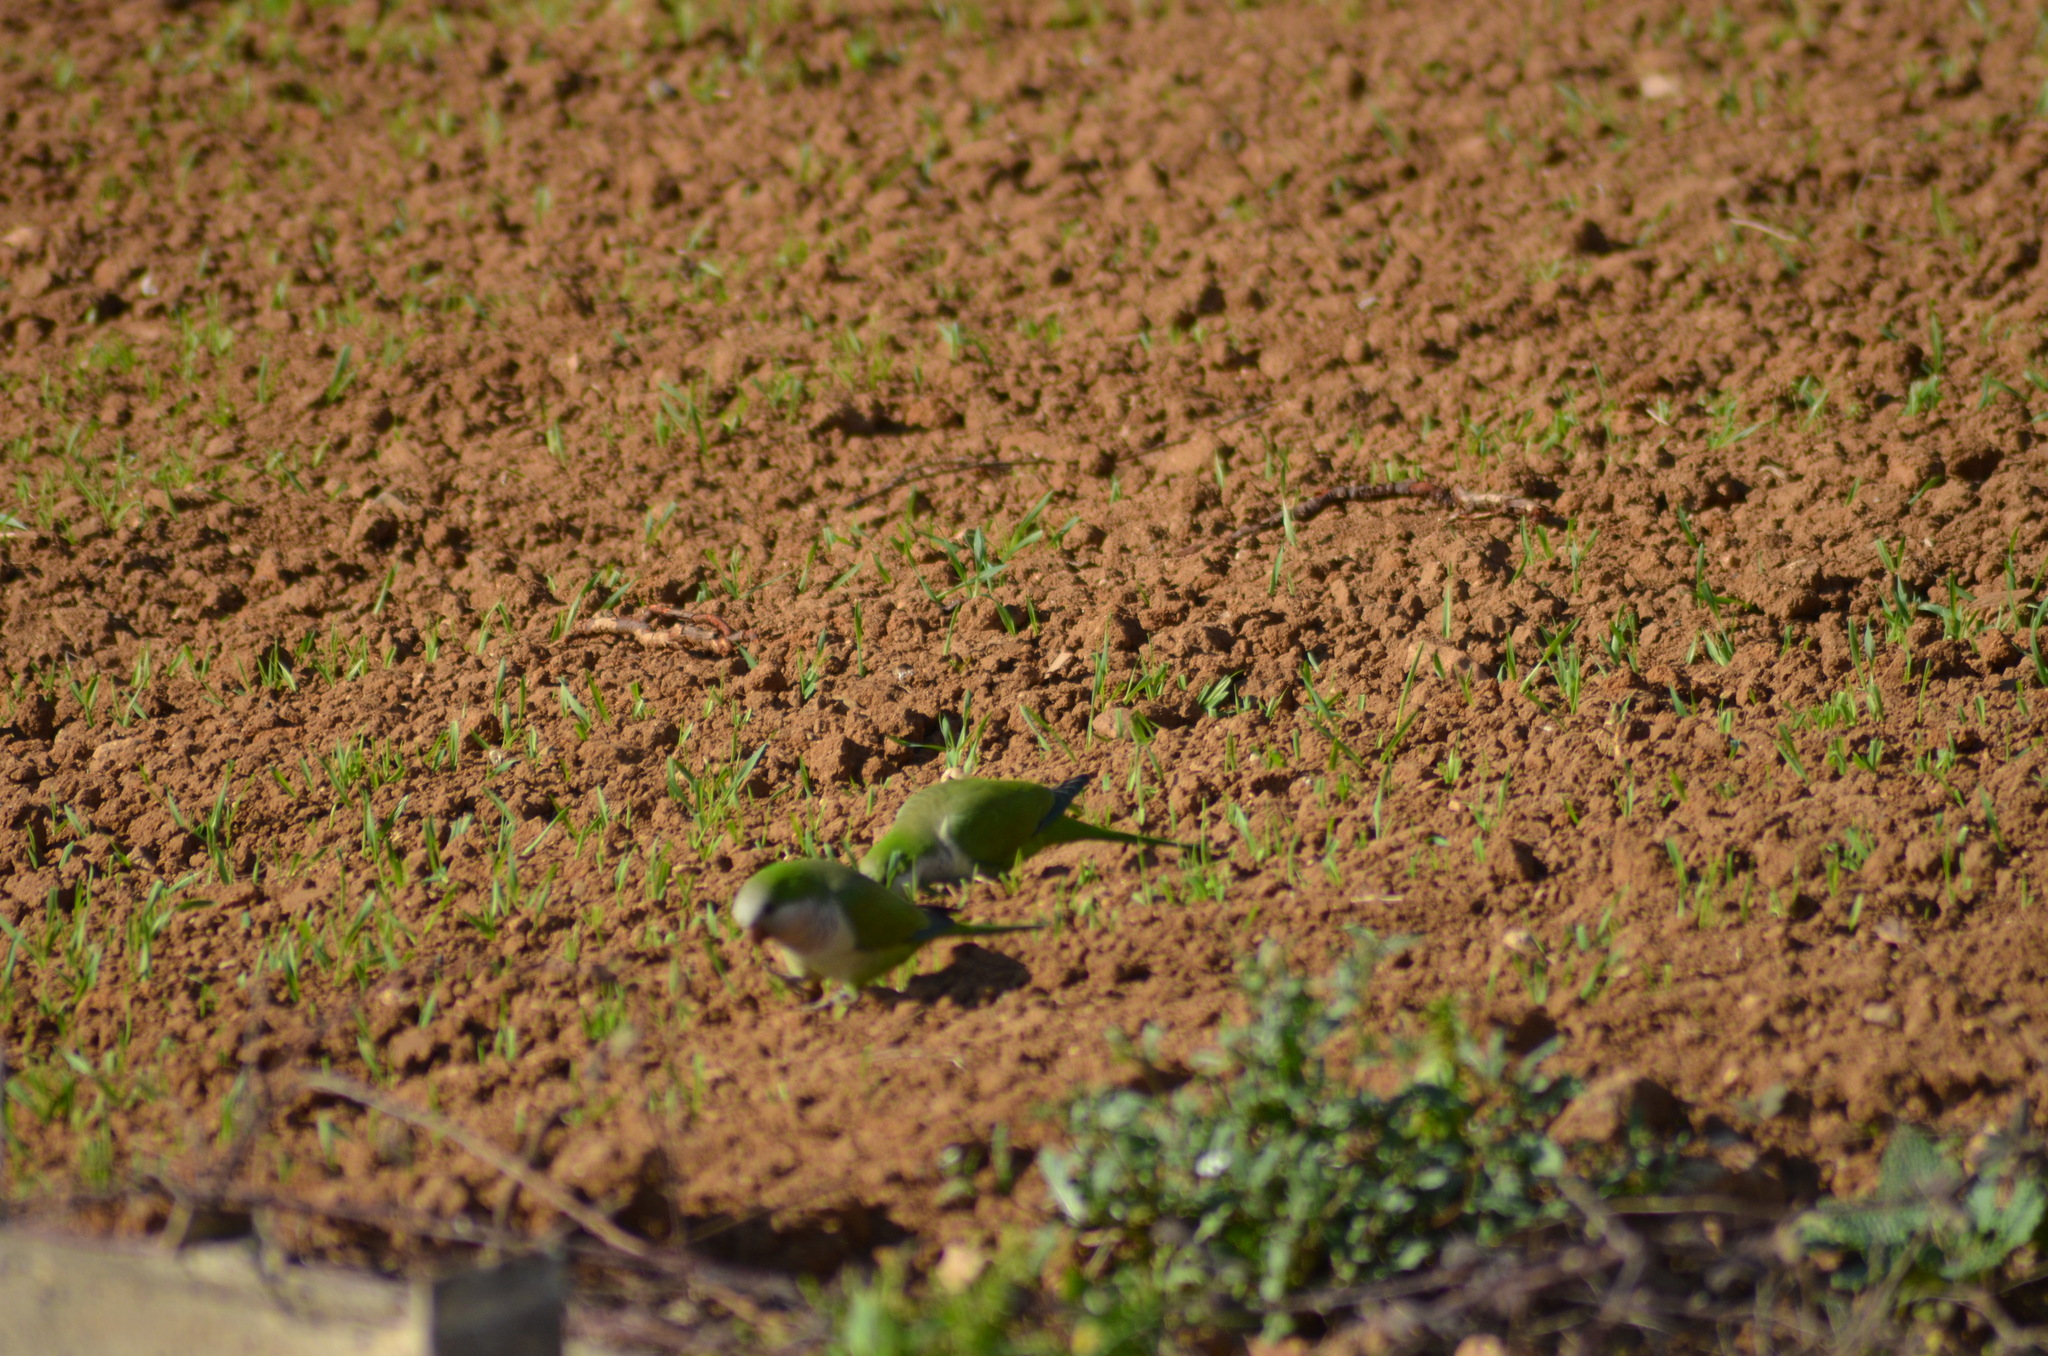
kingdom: Animalia
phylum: Chordata
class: Aves
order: Psittaciformes
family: Psittacidae
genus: Myiopsitta
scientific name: Myiopsitta monachus
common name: Monk parakeet
